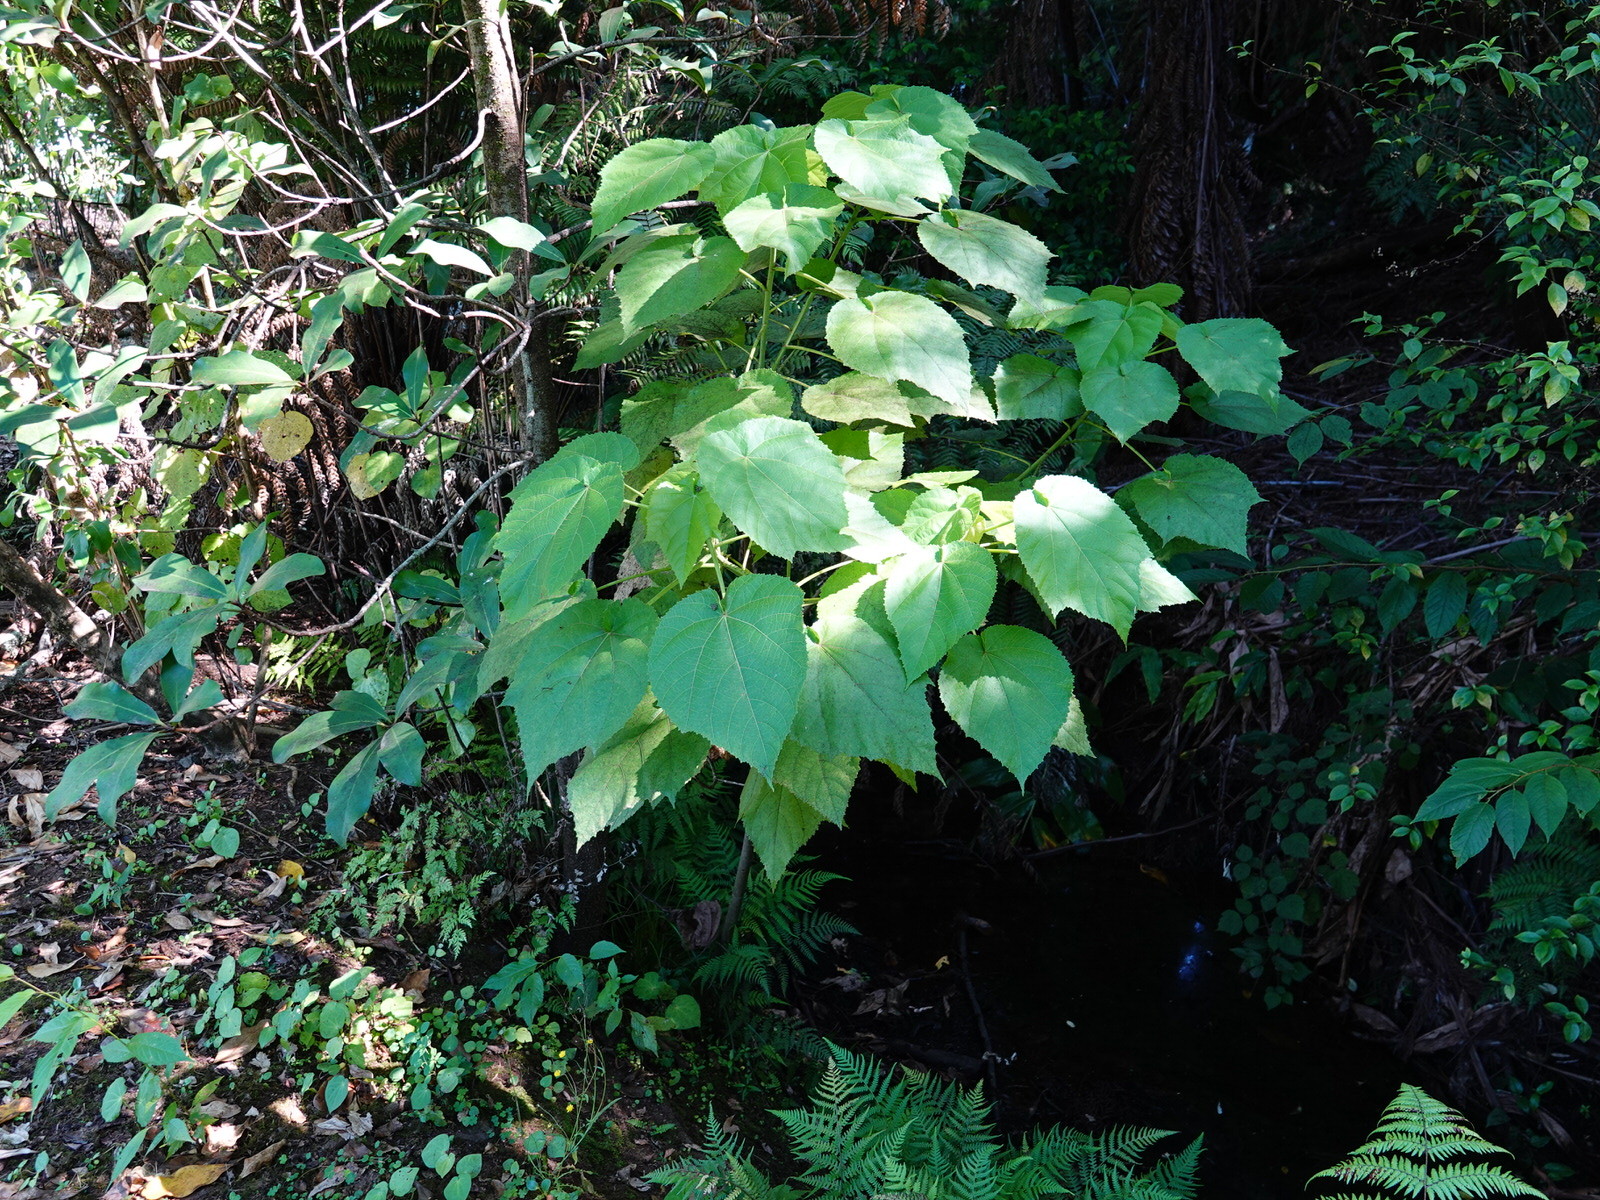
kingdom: Plantae
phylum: Tracheophyta
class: Magnoliopsida
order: Malvales
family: Malvaceae
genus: Entelea
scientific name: Entelea arborescens
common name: New zealand-mulberry
